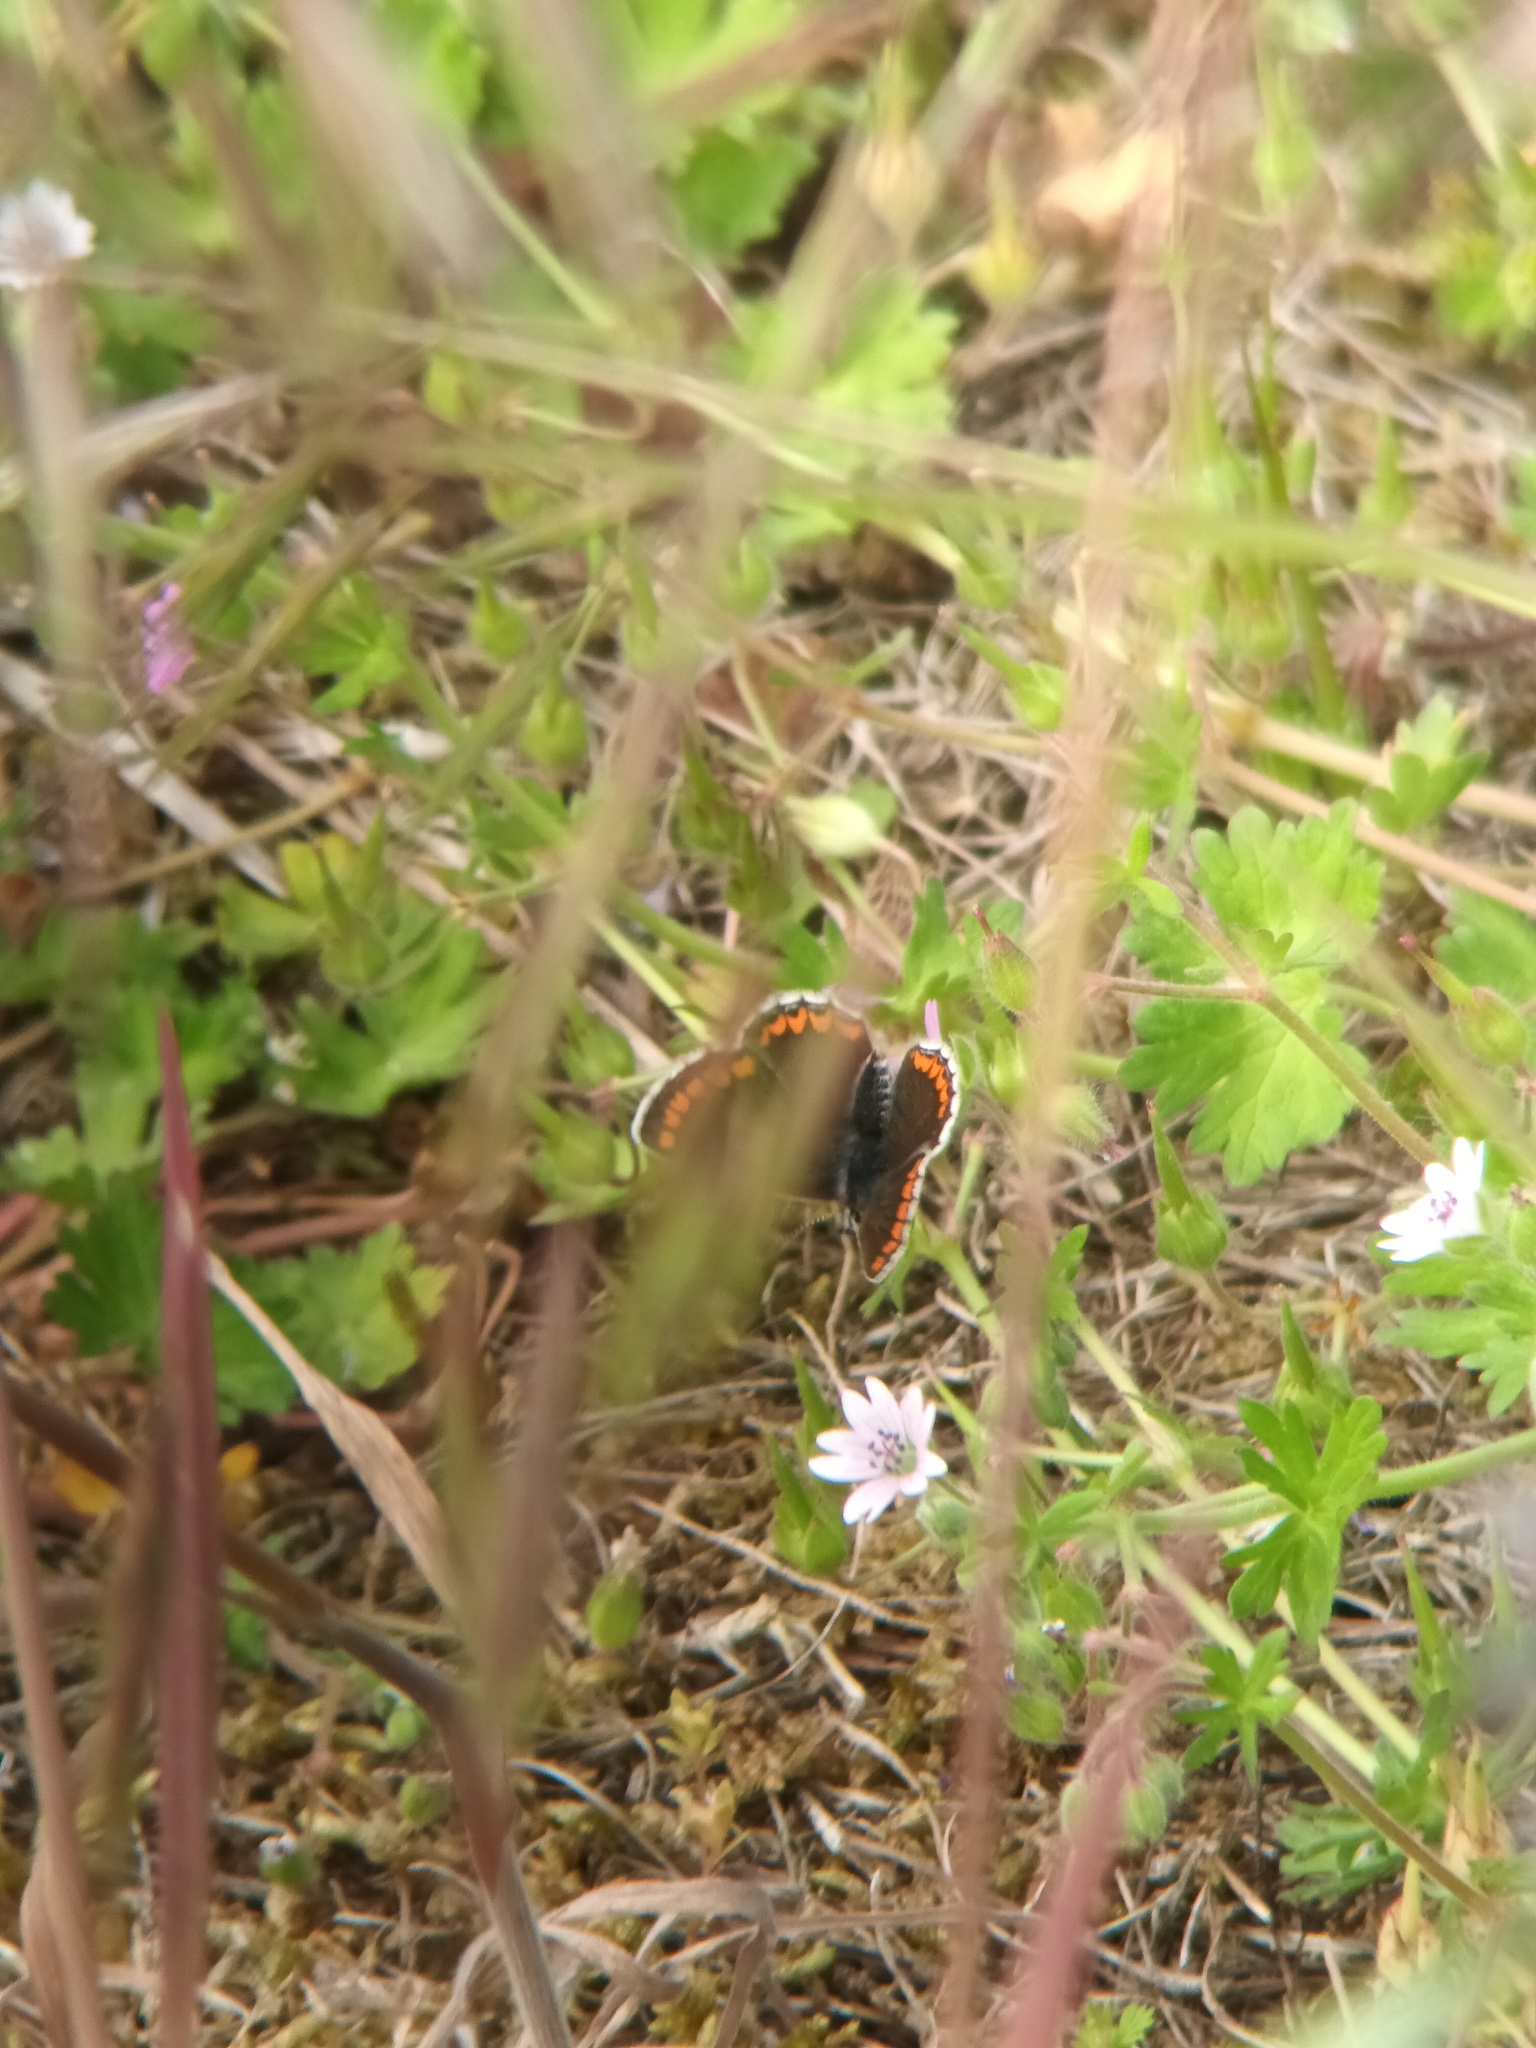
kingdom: Animalia
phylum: Arthropoda
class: Insecta
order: Lepidoptera
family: Lycaenidae
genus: Aricia
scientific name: Aricia agestis
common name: Brown argus
